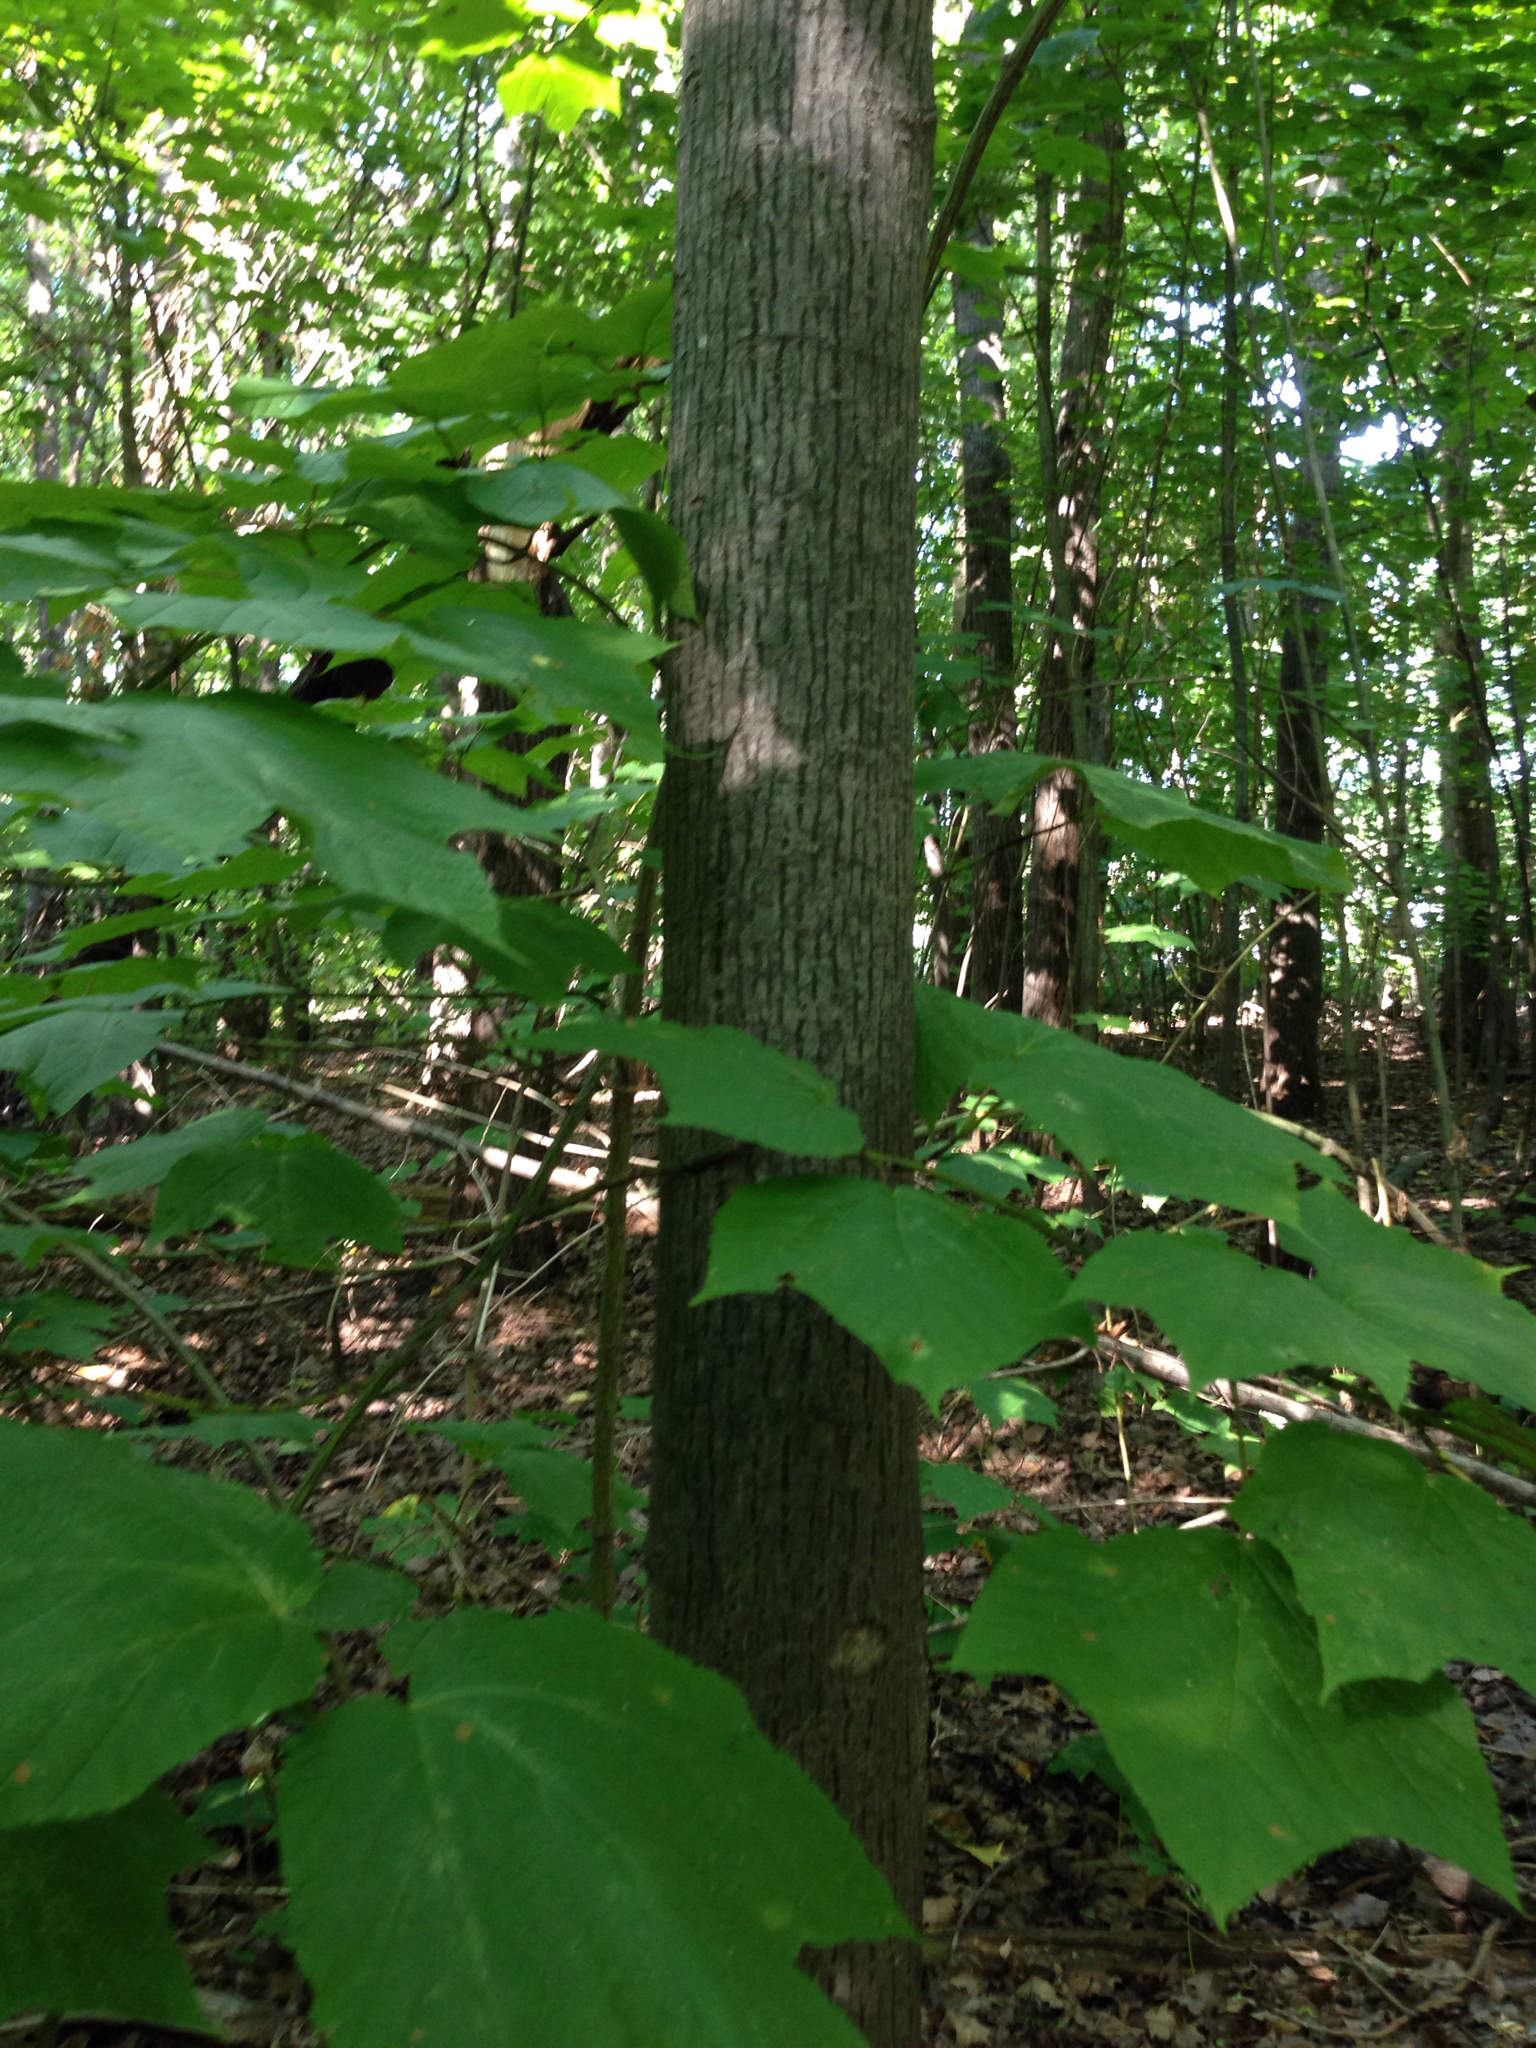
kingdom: Plantae
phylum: Tracheophyta
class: Magnoliopsida
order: Sapindales
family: Sapindaceae
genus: Acer
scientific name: Acer pensylvanicum
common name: Moosewood
